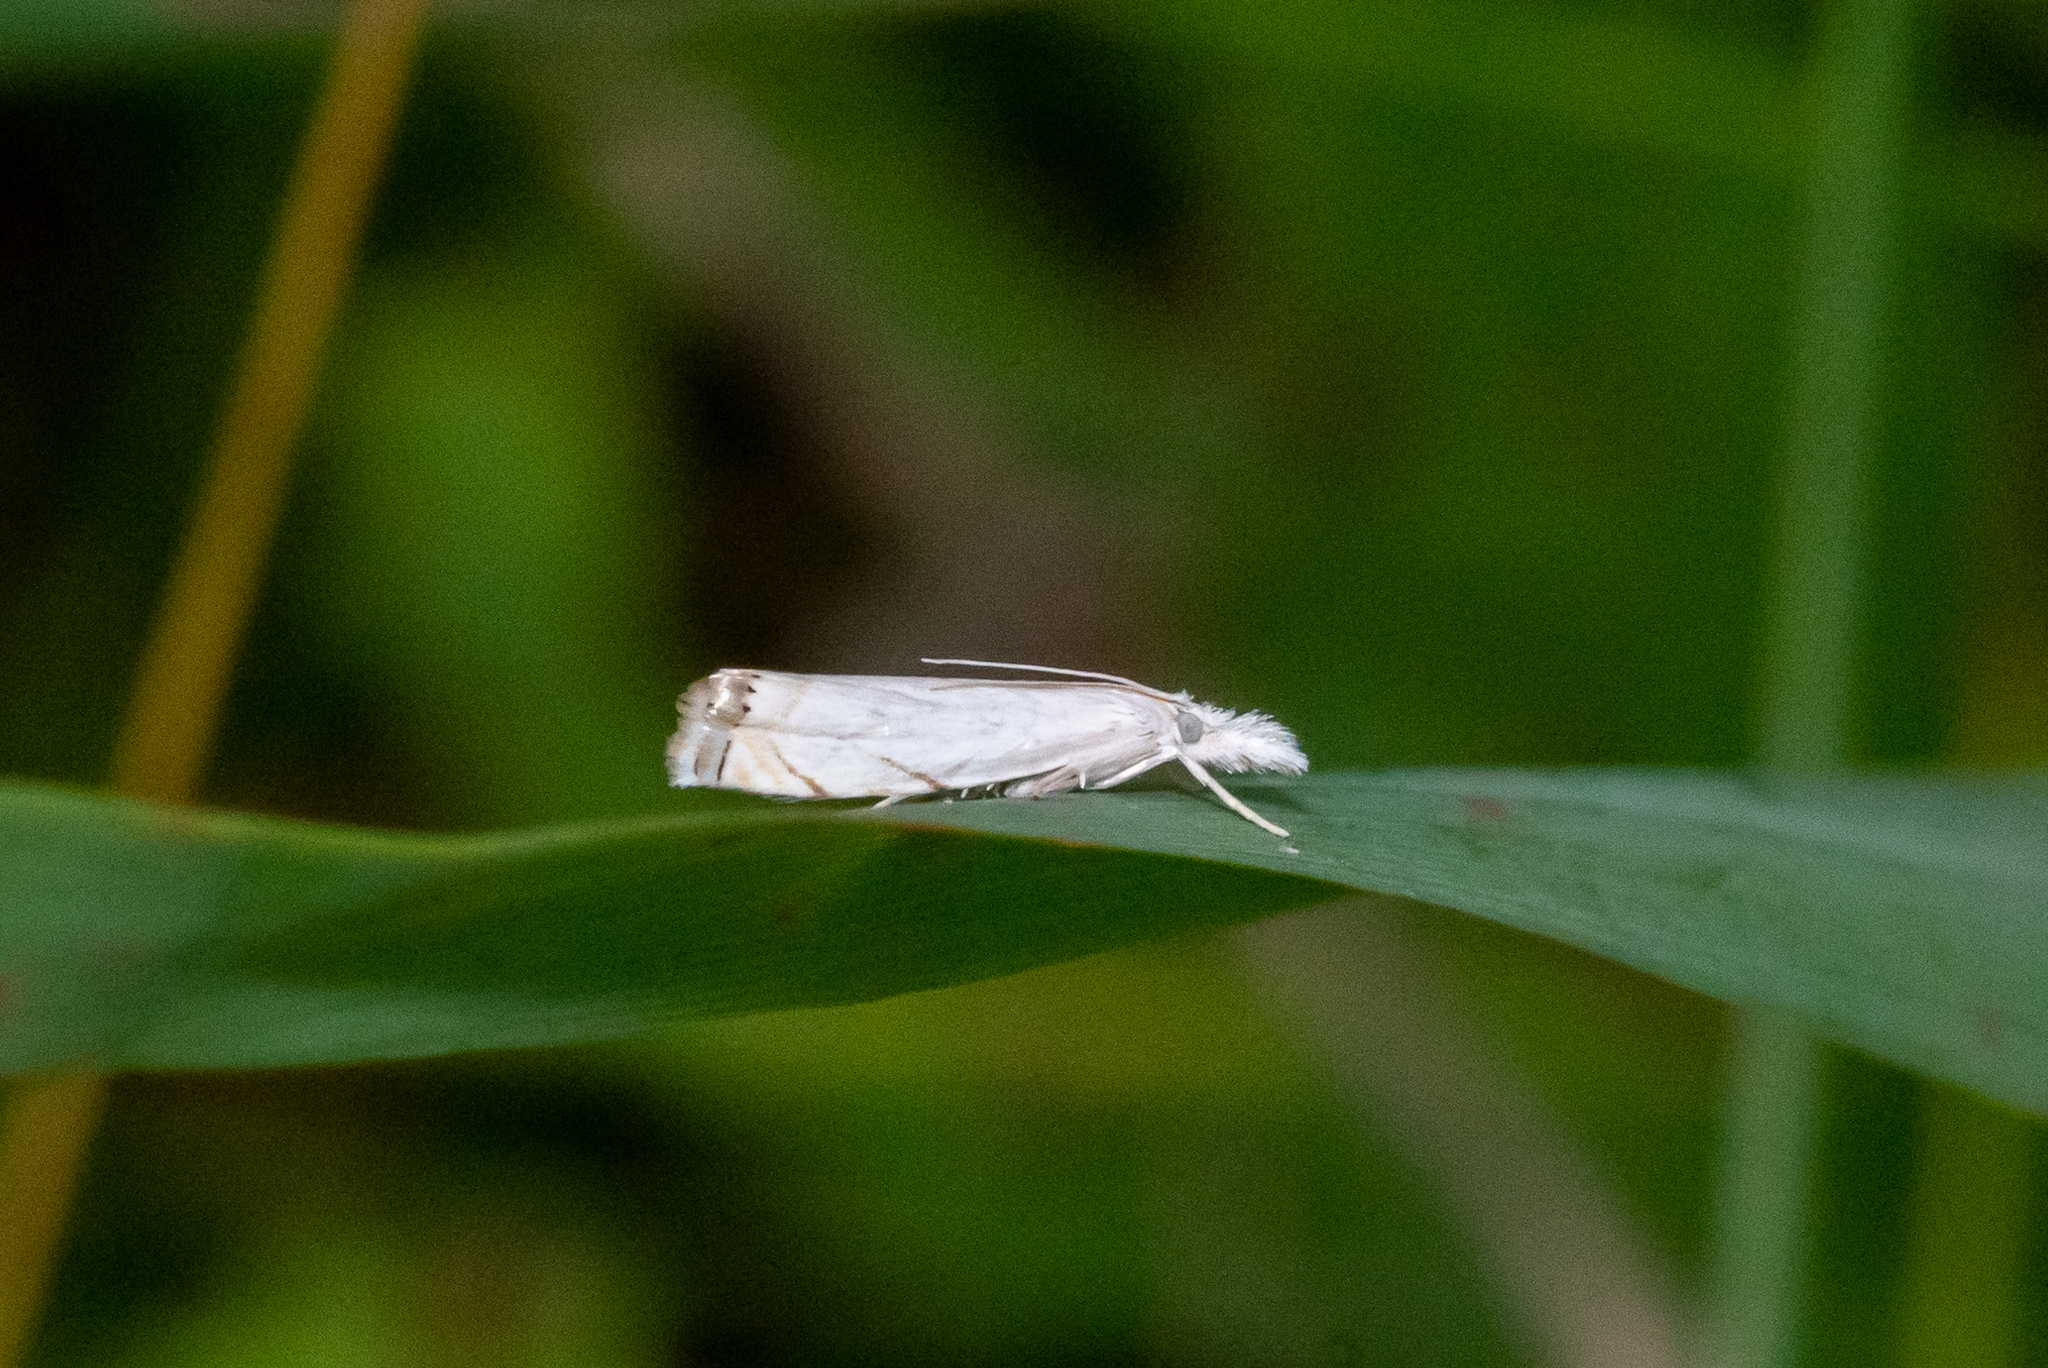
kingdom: Animalia
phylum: Arthropoda
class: Insecta
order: Lepidoptera
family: Crambidae
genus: Crambus
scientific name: Crambus albellus
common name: Small white grass-veneer
